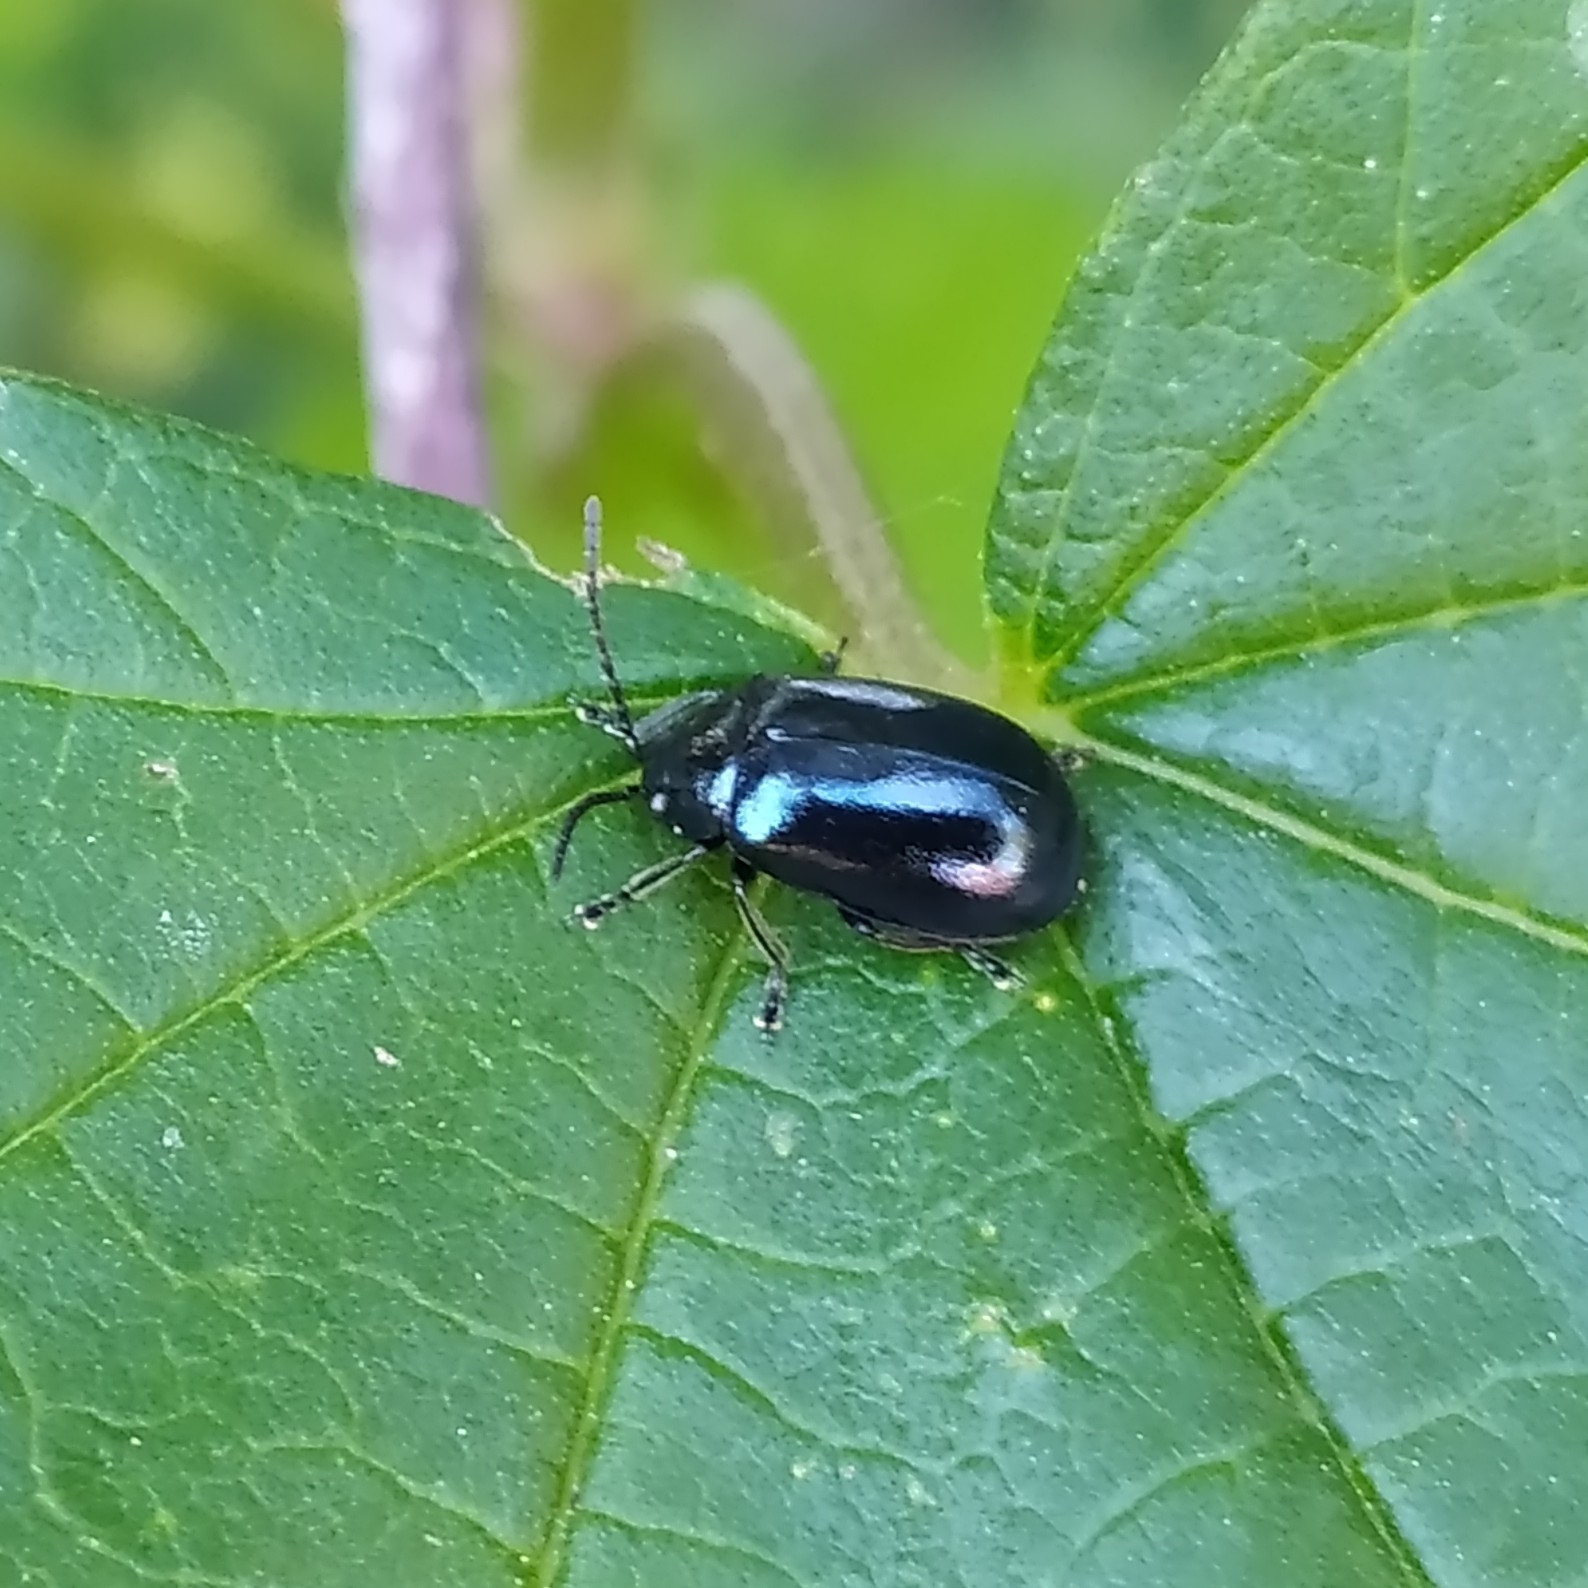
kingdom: Animalia
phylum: Arthropoda
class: Insecta
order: Coleoptera
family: Chrysomelidae
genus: Agelastica
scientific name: Agelastica alni
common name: Alder leaf beetle
